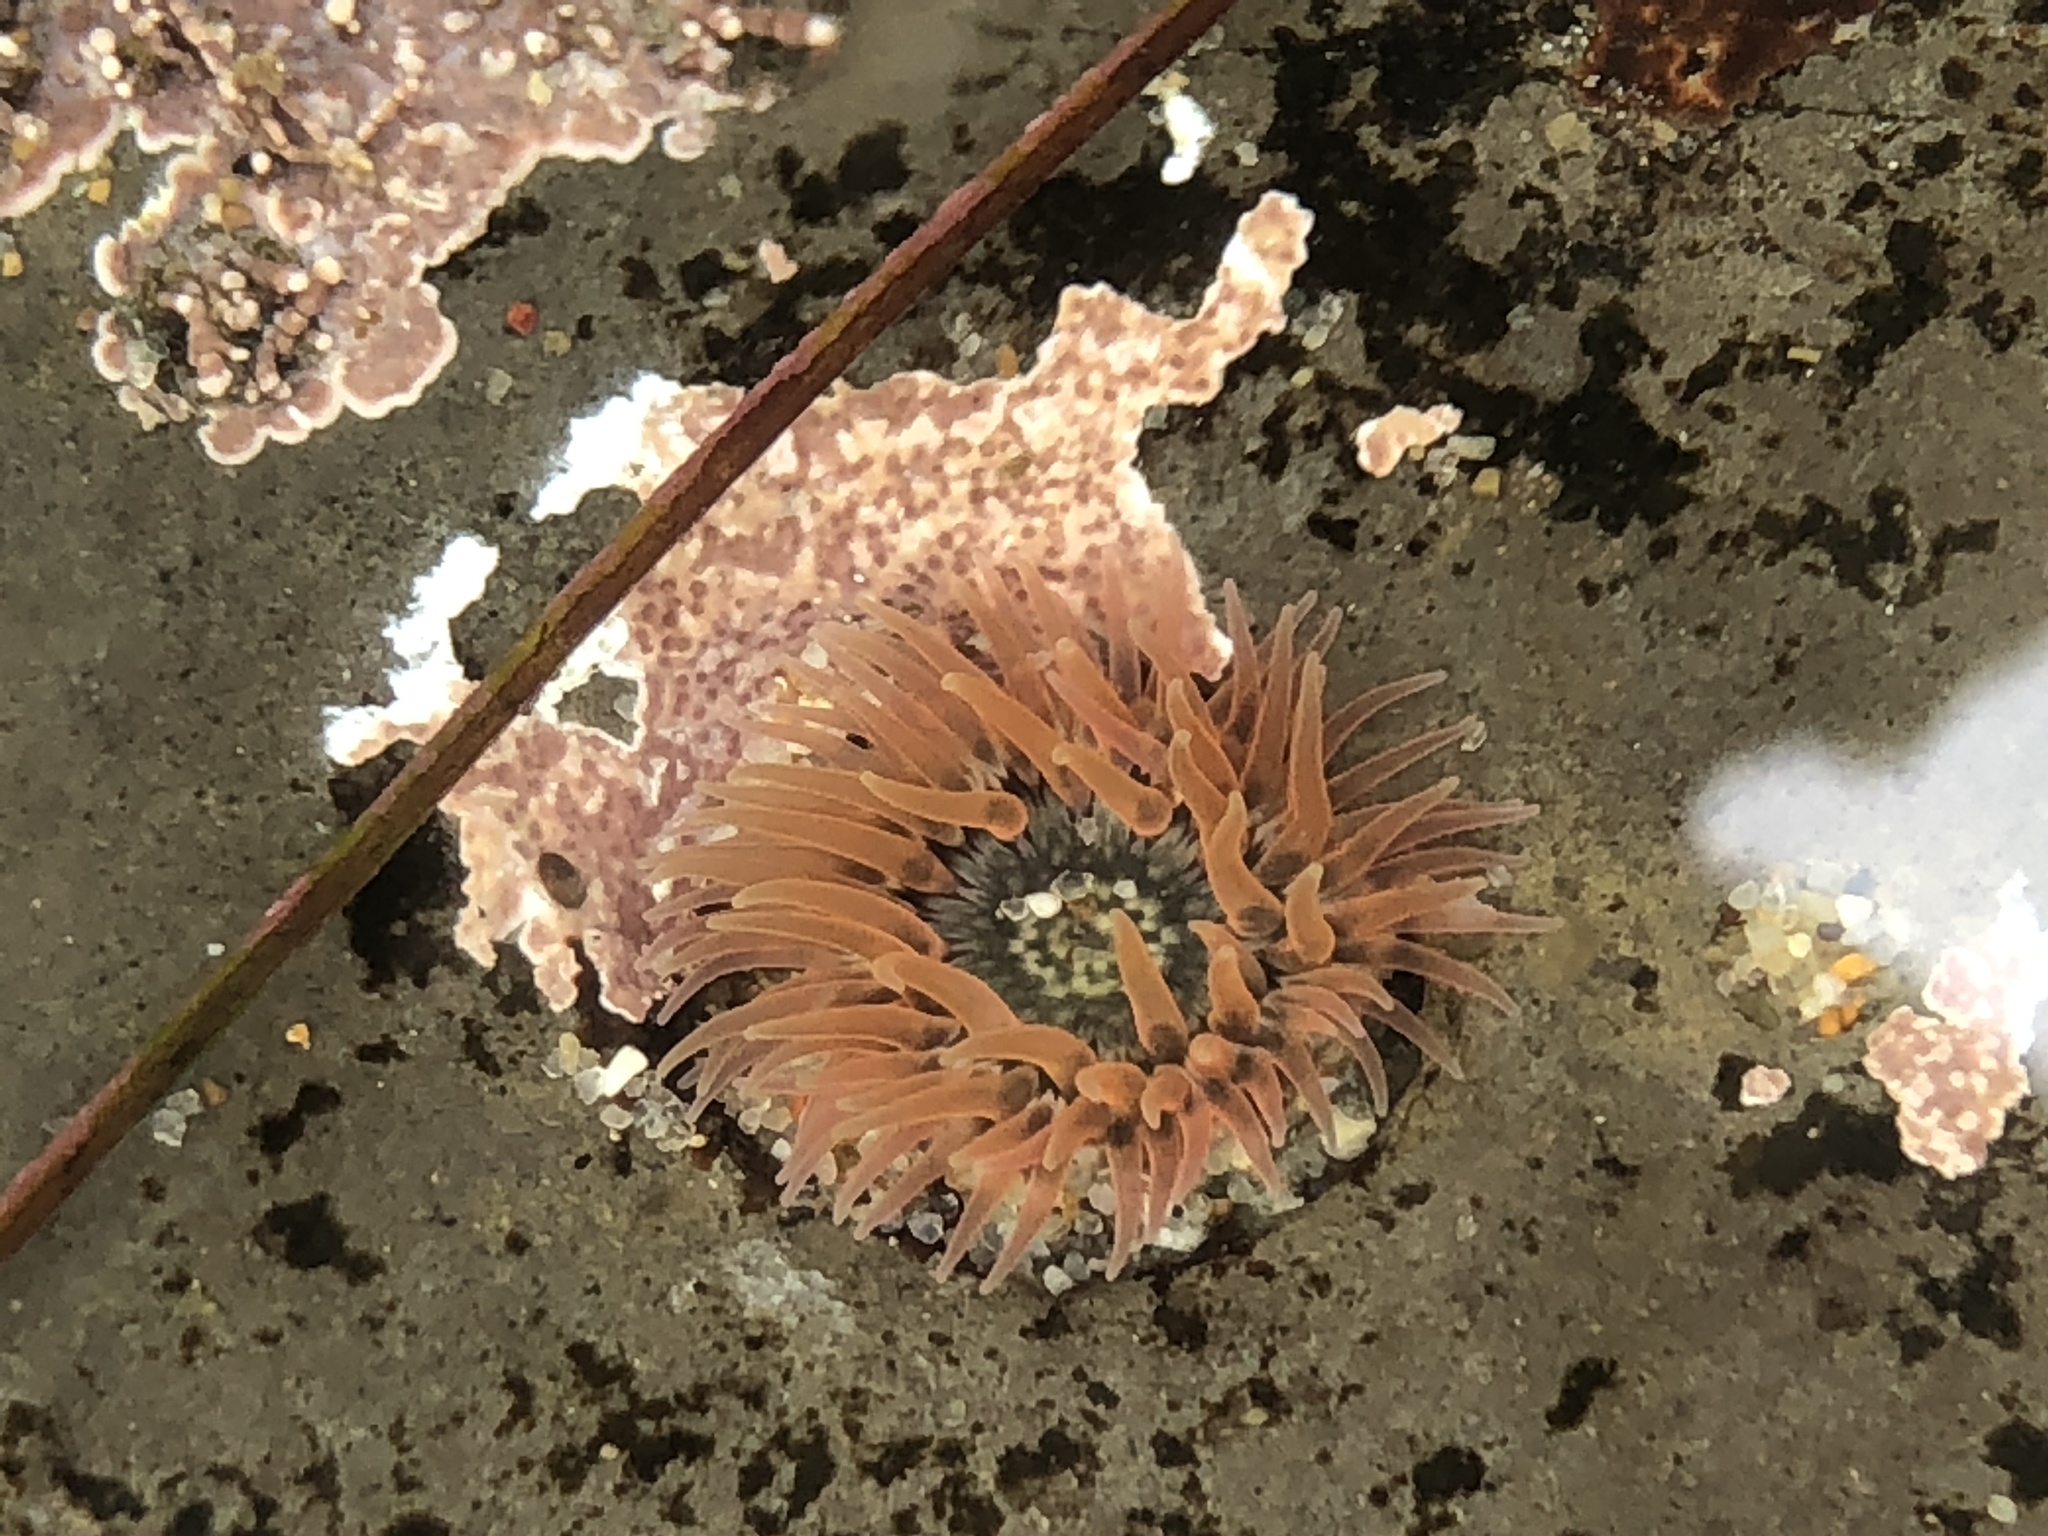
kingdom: Animalia
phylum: Cnidaria
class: Anthozoa
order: Actiniaria
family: Actiniidae
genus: Anthopleura
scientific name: Anthopleura artemisia
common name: Buried sea anemone
